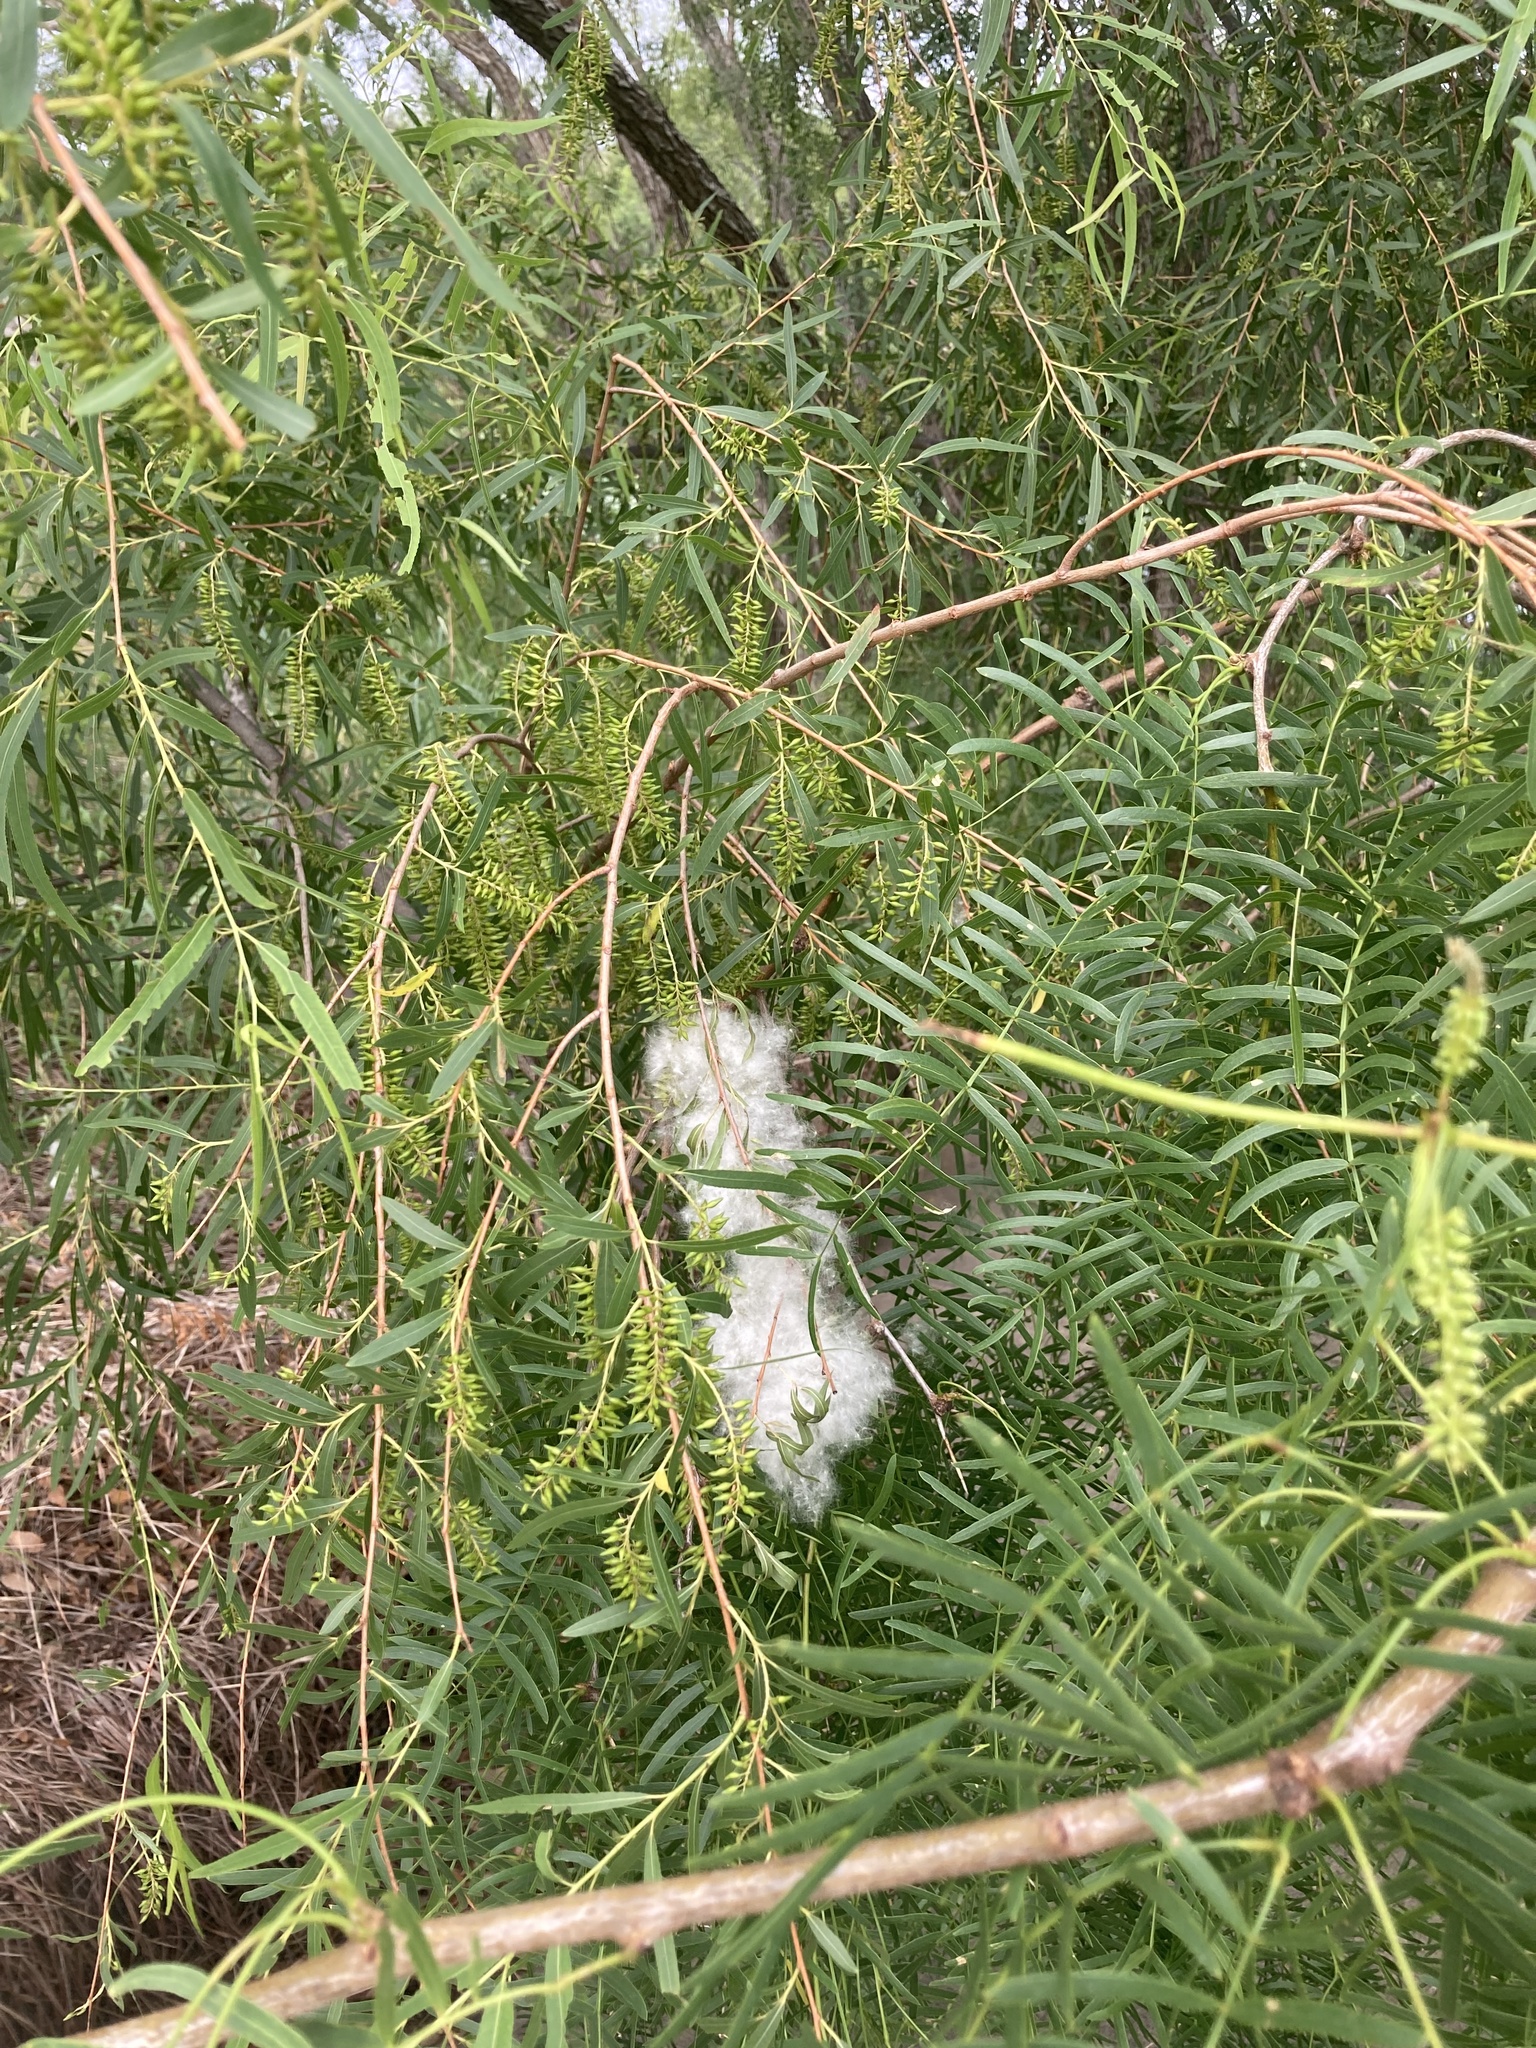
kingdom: Plantae
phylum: Tracheophyta
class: Magnoliopsida
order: Malpighiales
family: Salicaceae
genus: Salix
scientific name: Salix nigra
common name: Black willow
